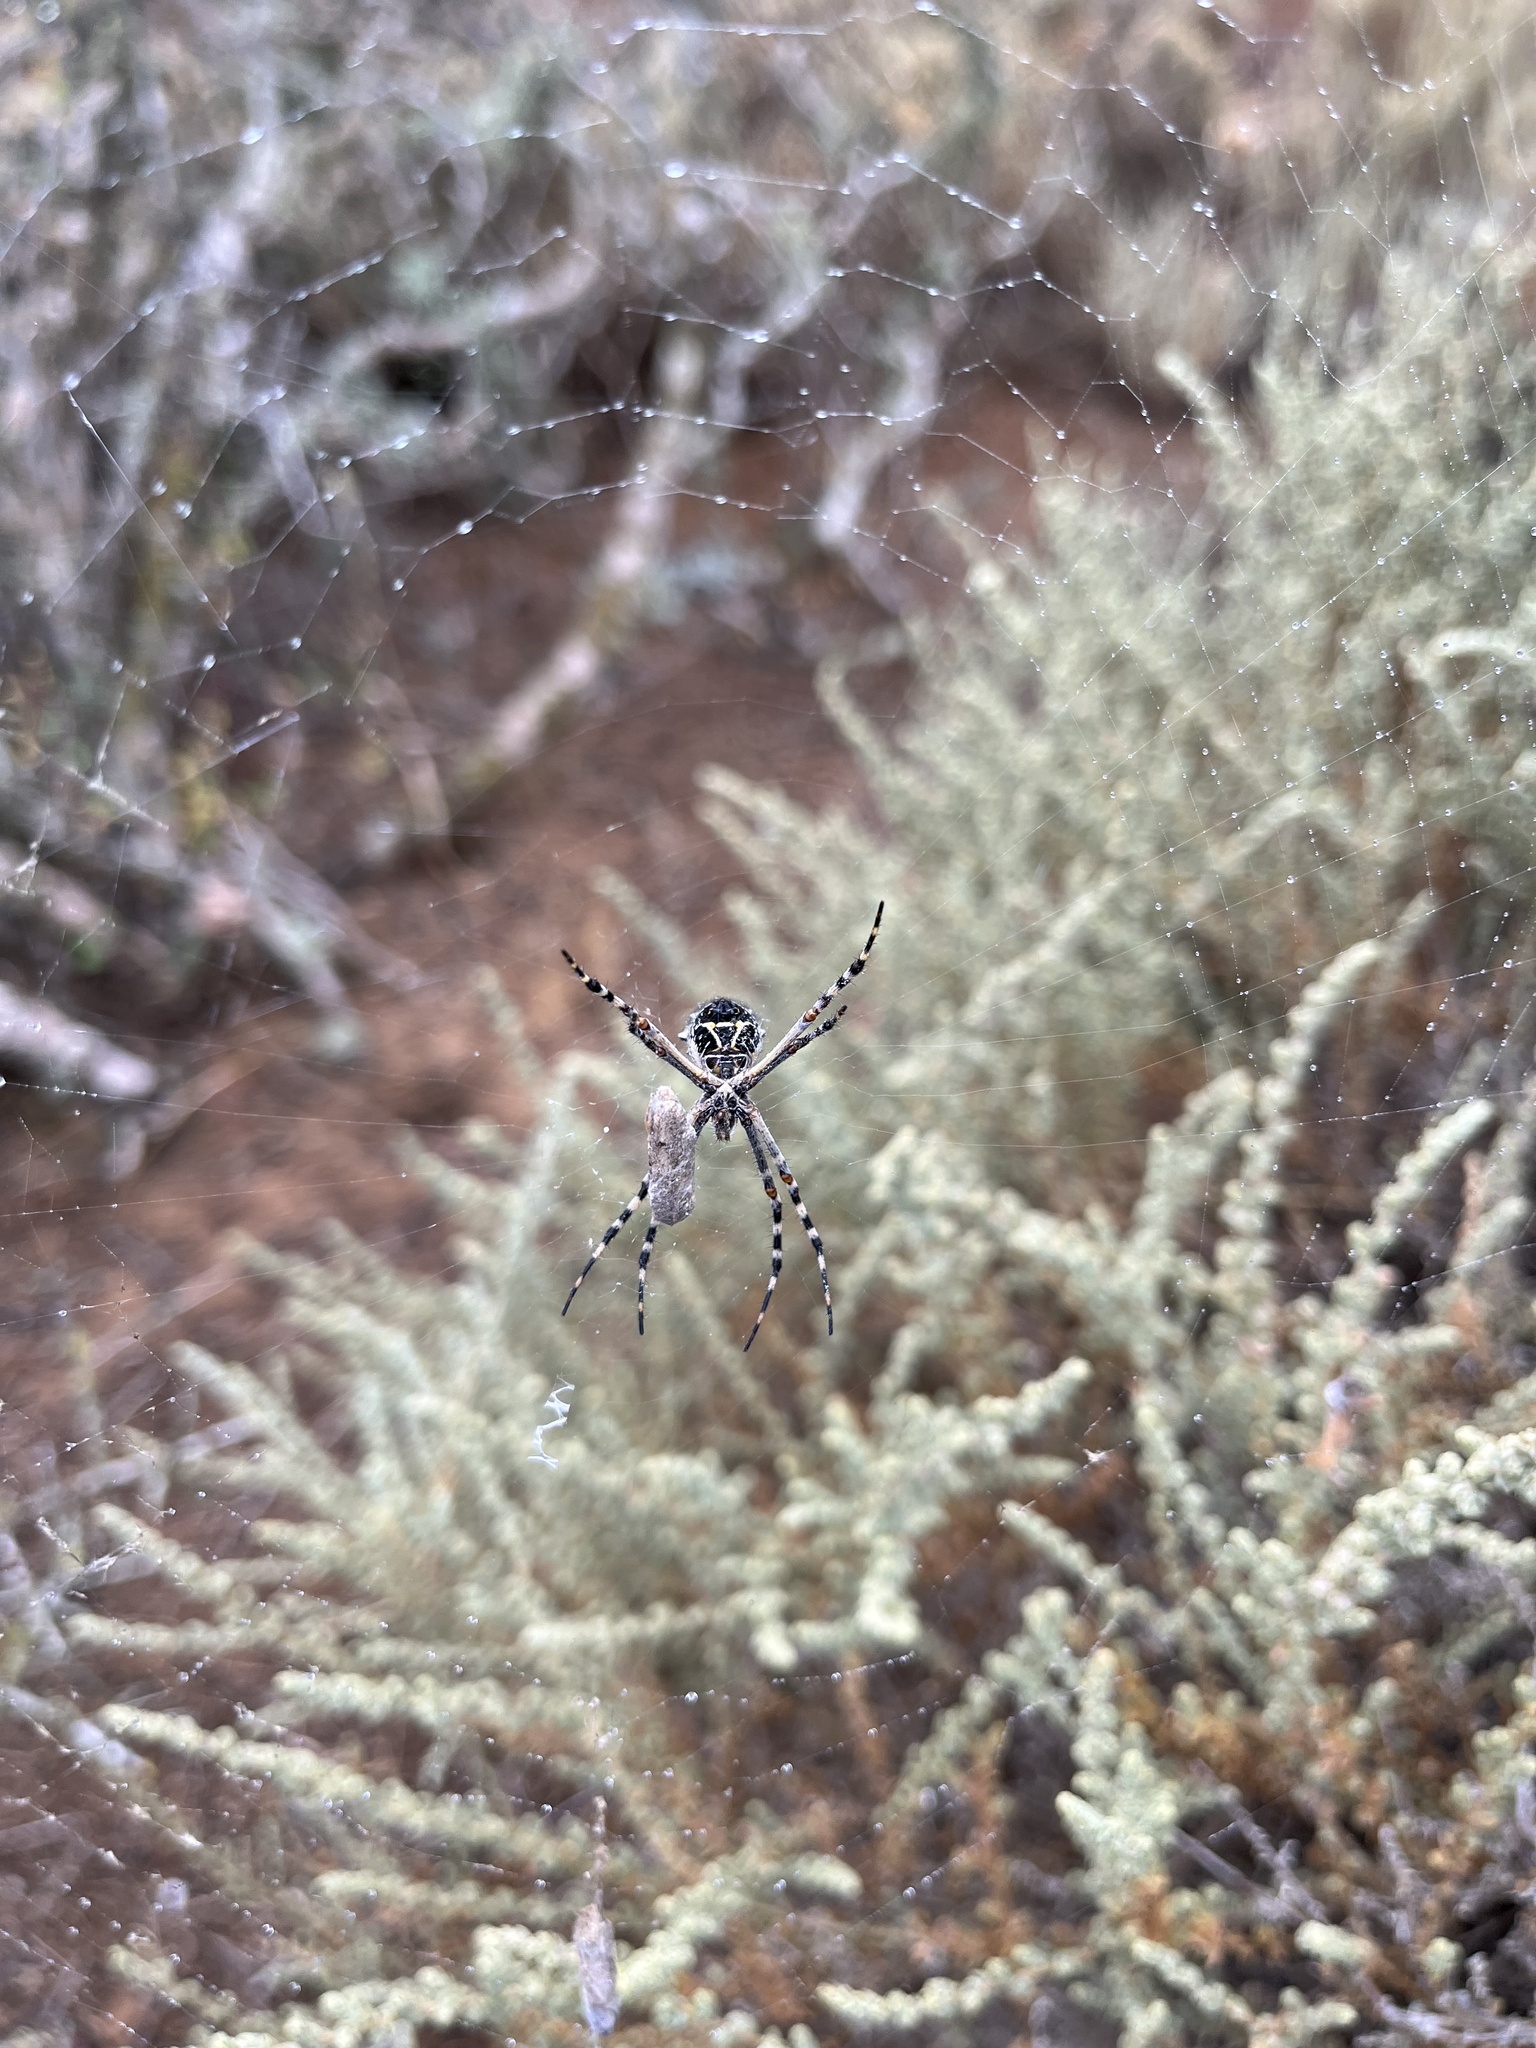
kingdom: Animalia
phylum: Arthropoda
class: Arachnida
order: Araneae
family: Araneidae
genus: Argiope
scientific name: Argiope argentata
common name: Orb weavers
